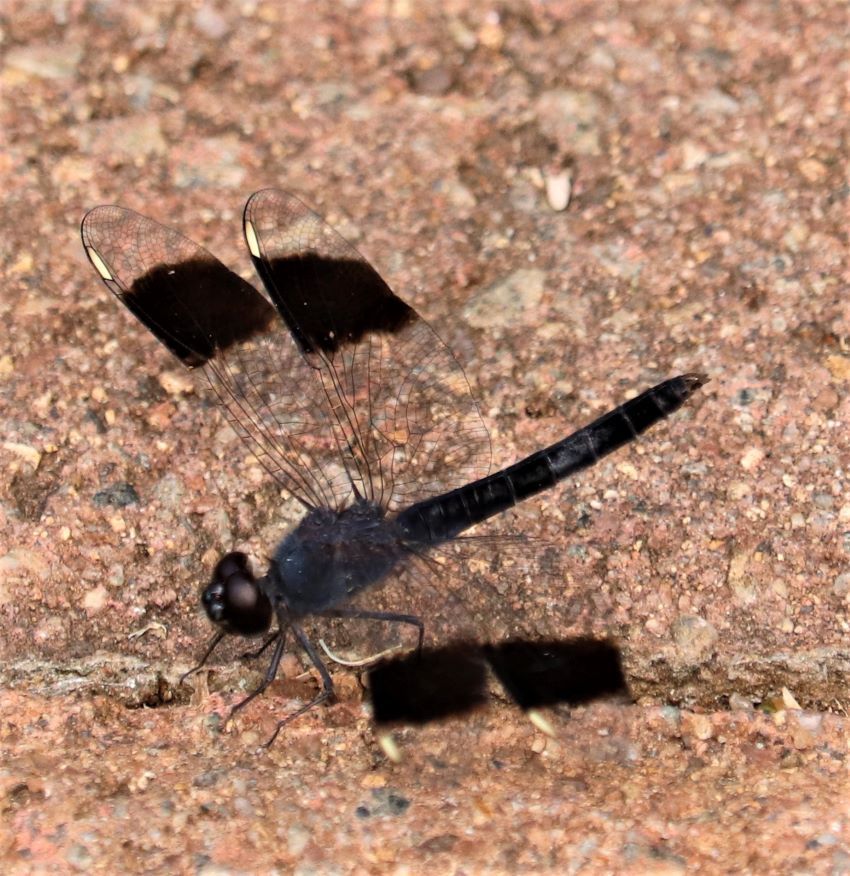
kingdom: Animalia
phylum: Arthropoda
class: Insecta
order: Odonata
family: Libellulidae
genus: Brachythemis
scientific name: Brachythemis leucosticta
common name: Banded groundling
